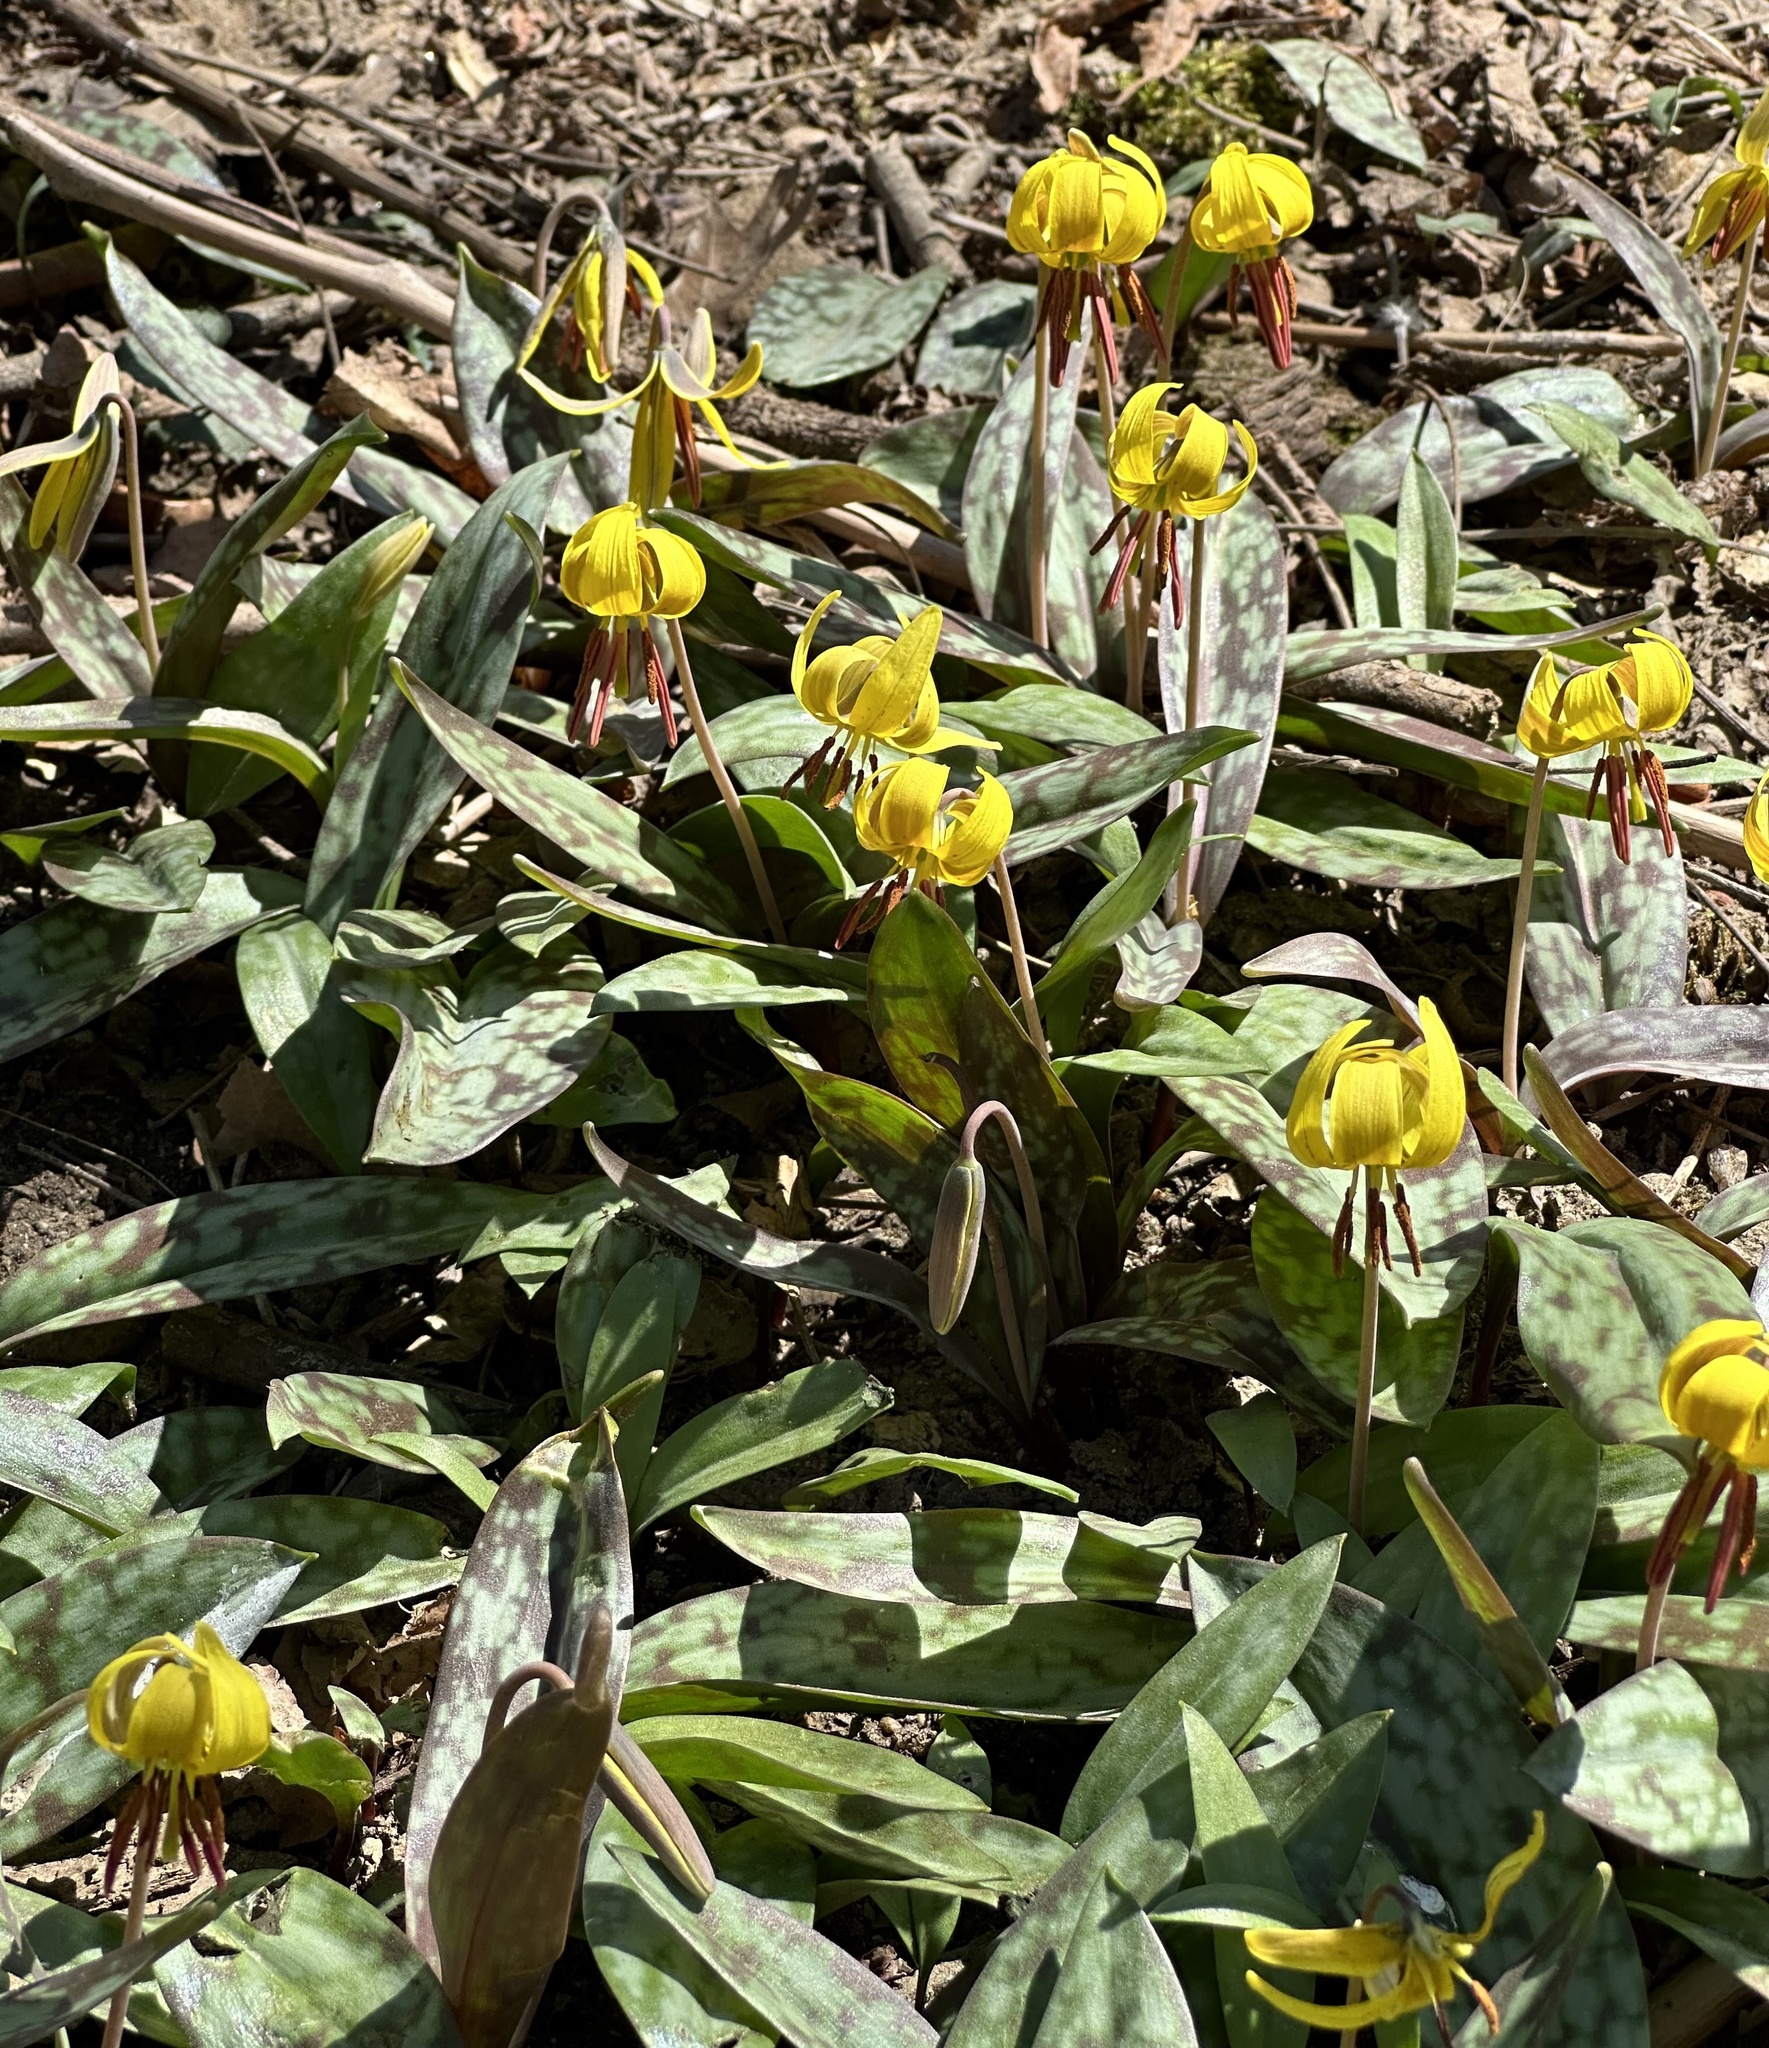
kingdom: Plantae
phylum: Tracheophyta
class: Liliopsida
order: Liliales
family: Liliaceae
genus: Erythronium
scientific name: Erythronium americanum
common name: Yellow adder's-tongue
